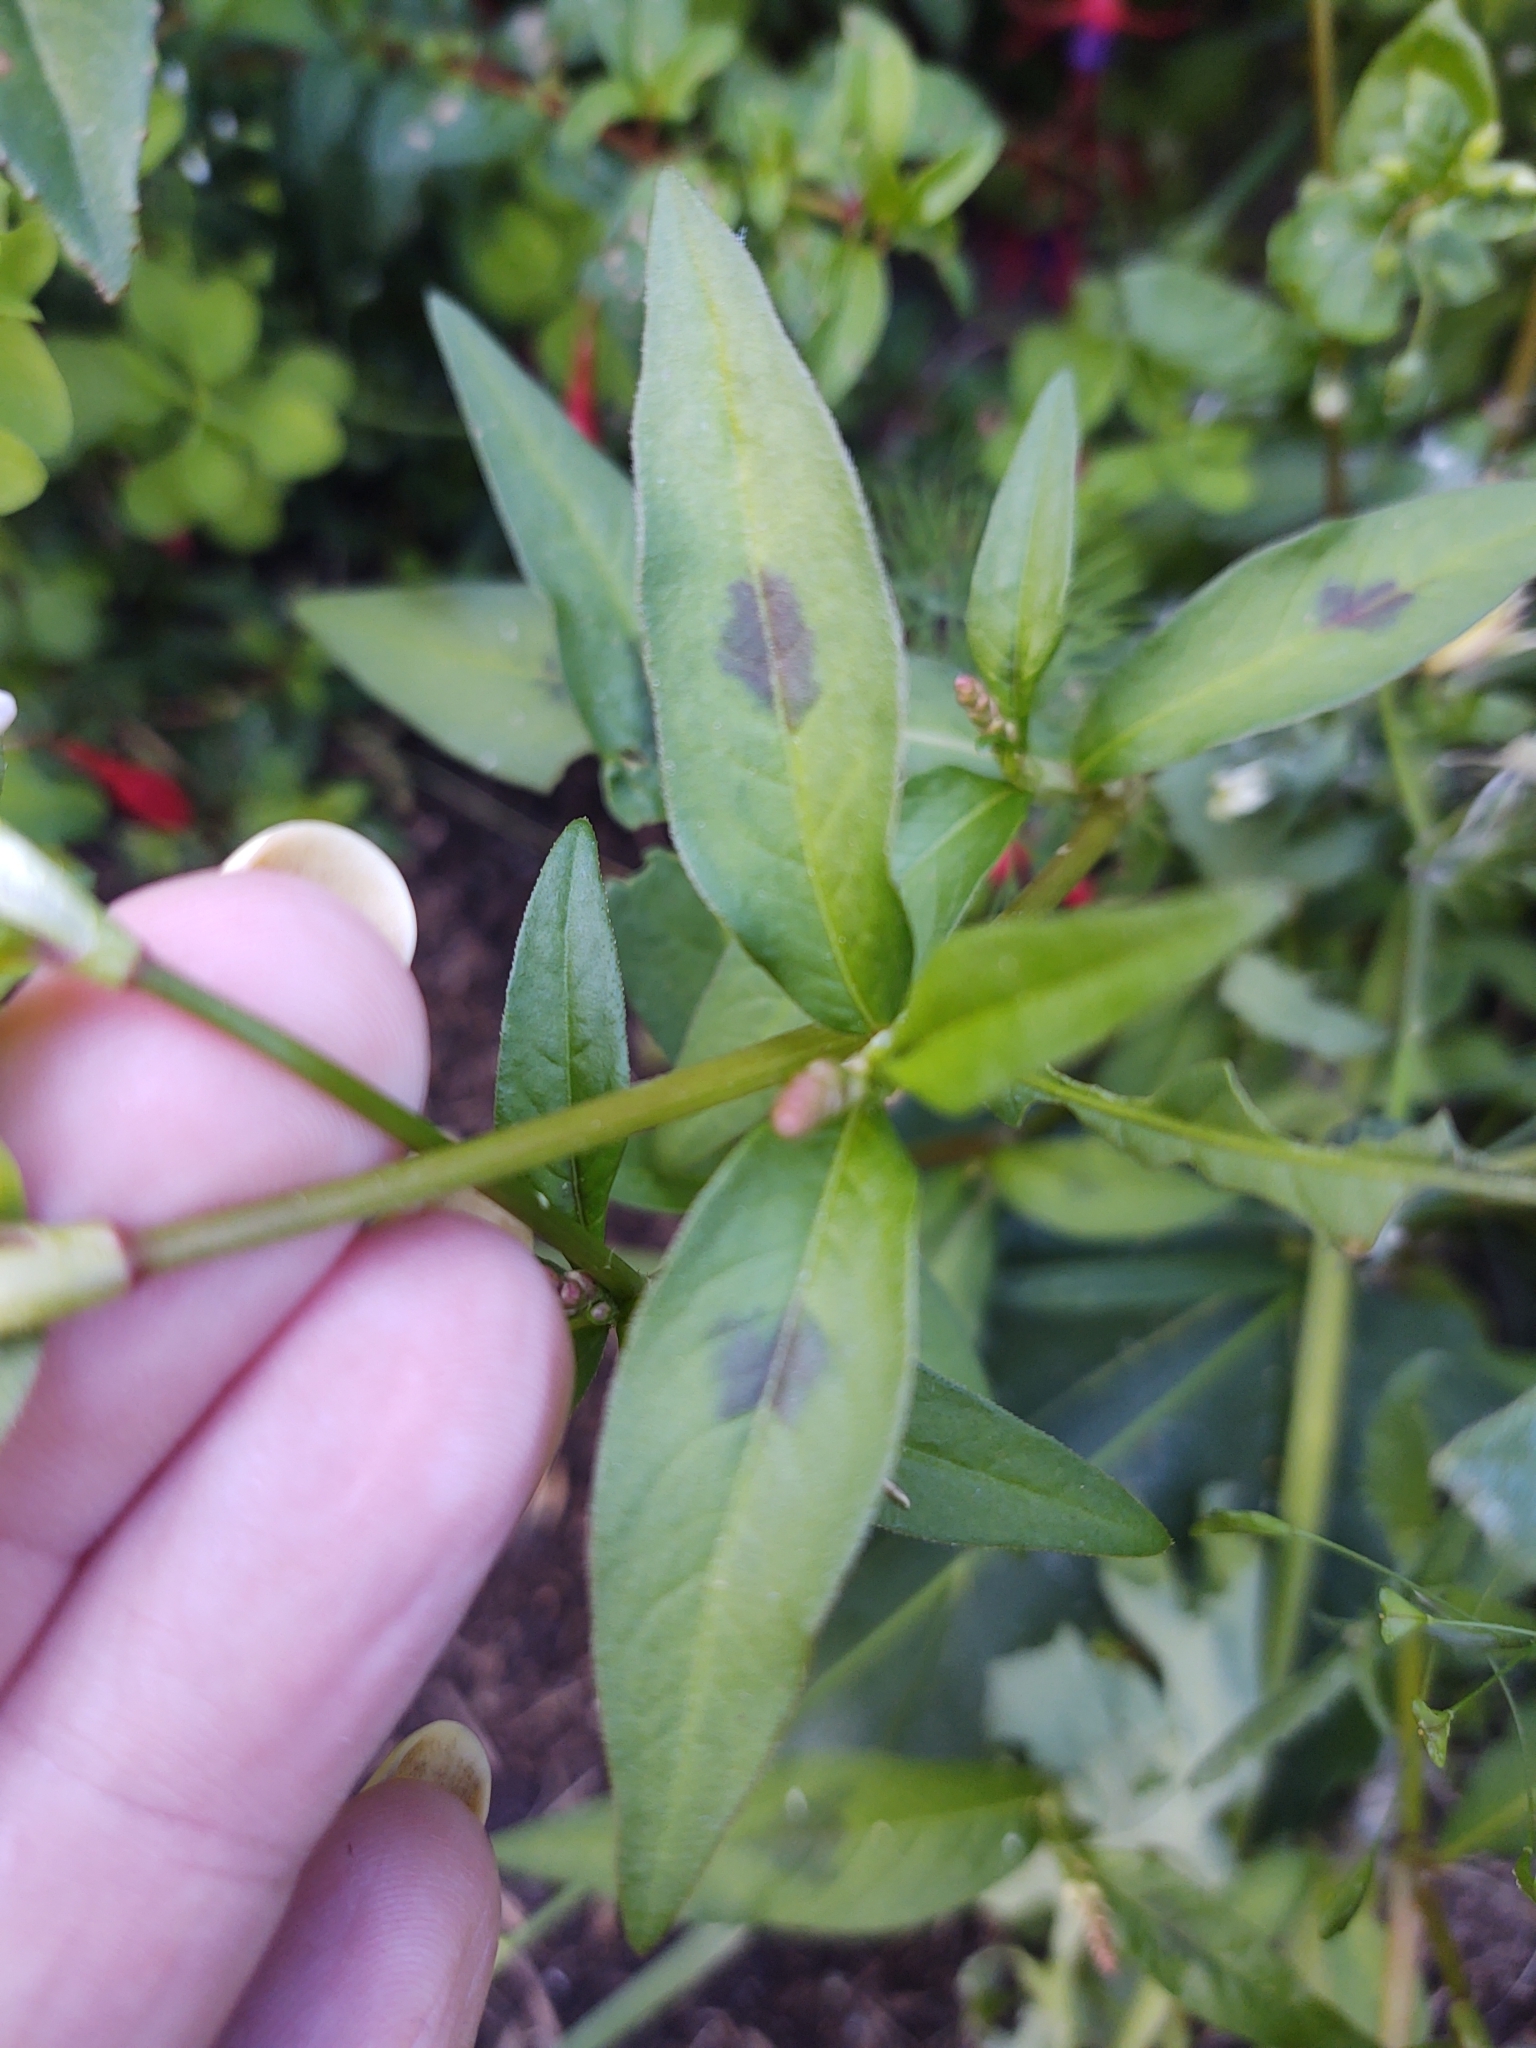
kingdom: Plantae
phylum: Tracheophyta
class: Magnoliopsida
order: Caryophyllales
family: Polygonaceae
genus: Persicaria
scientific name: Persicaria maculosa
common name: Redshank
